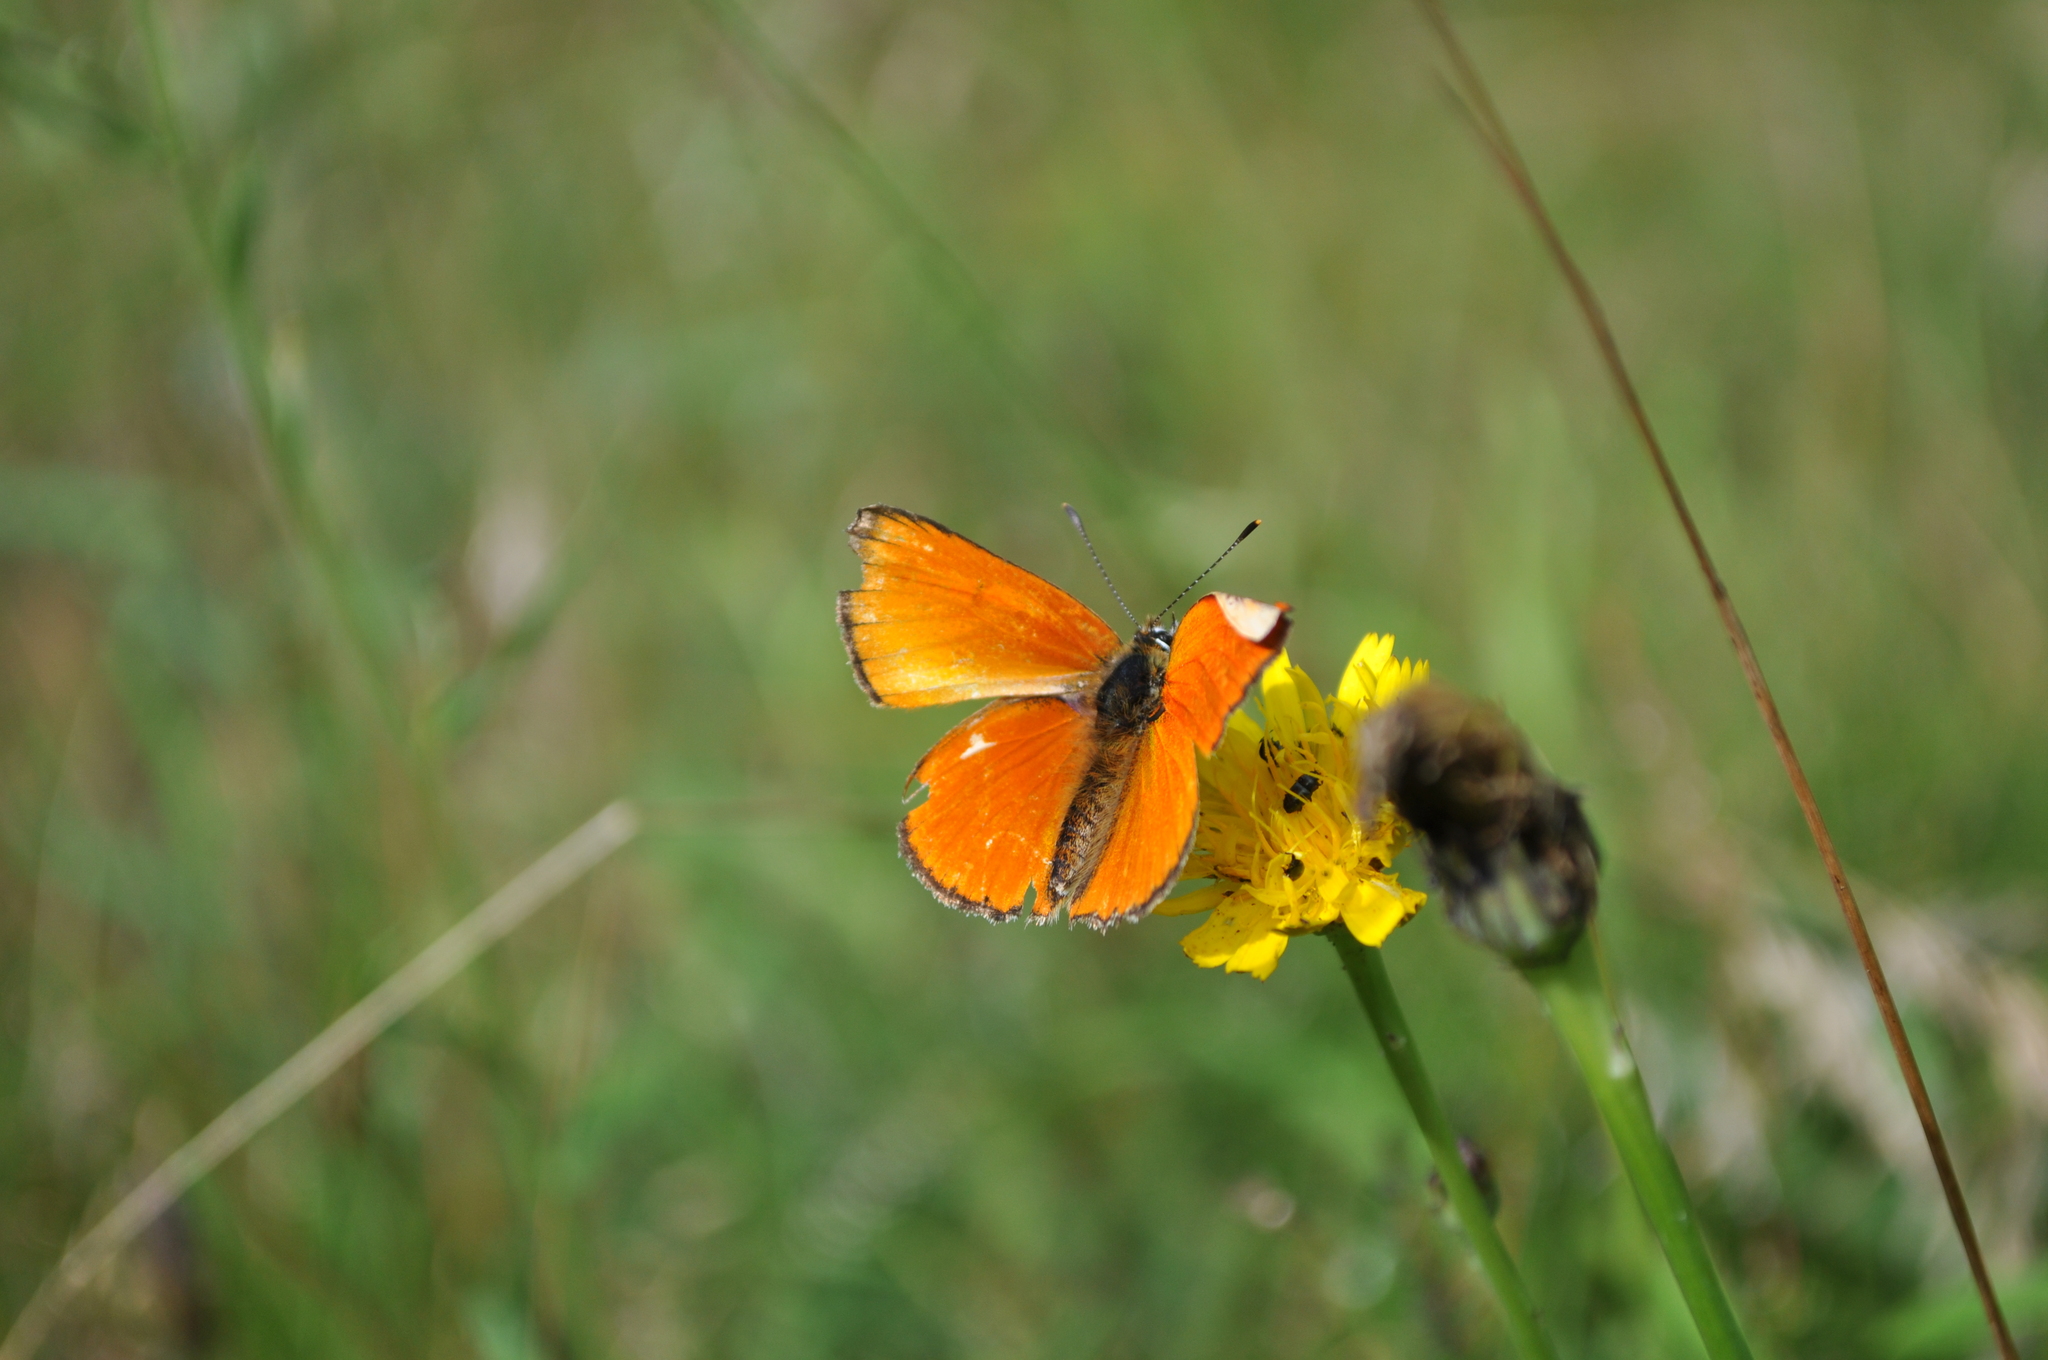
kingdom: Animalia
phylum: Arthropoda
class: Insecta
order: Lepidoptera
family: Lycaenidae
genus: Lycaena
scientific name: Lycaena virgaureae
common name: Scarce copper
